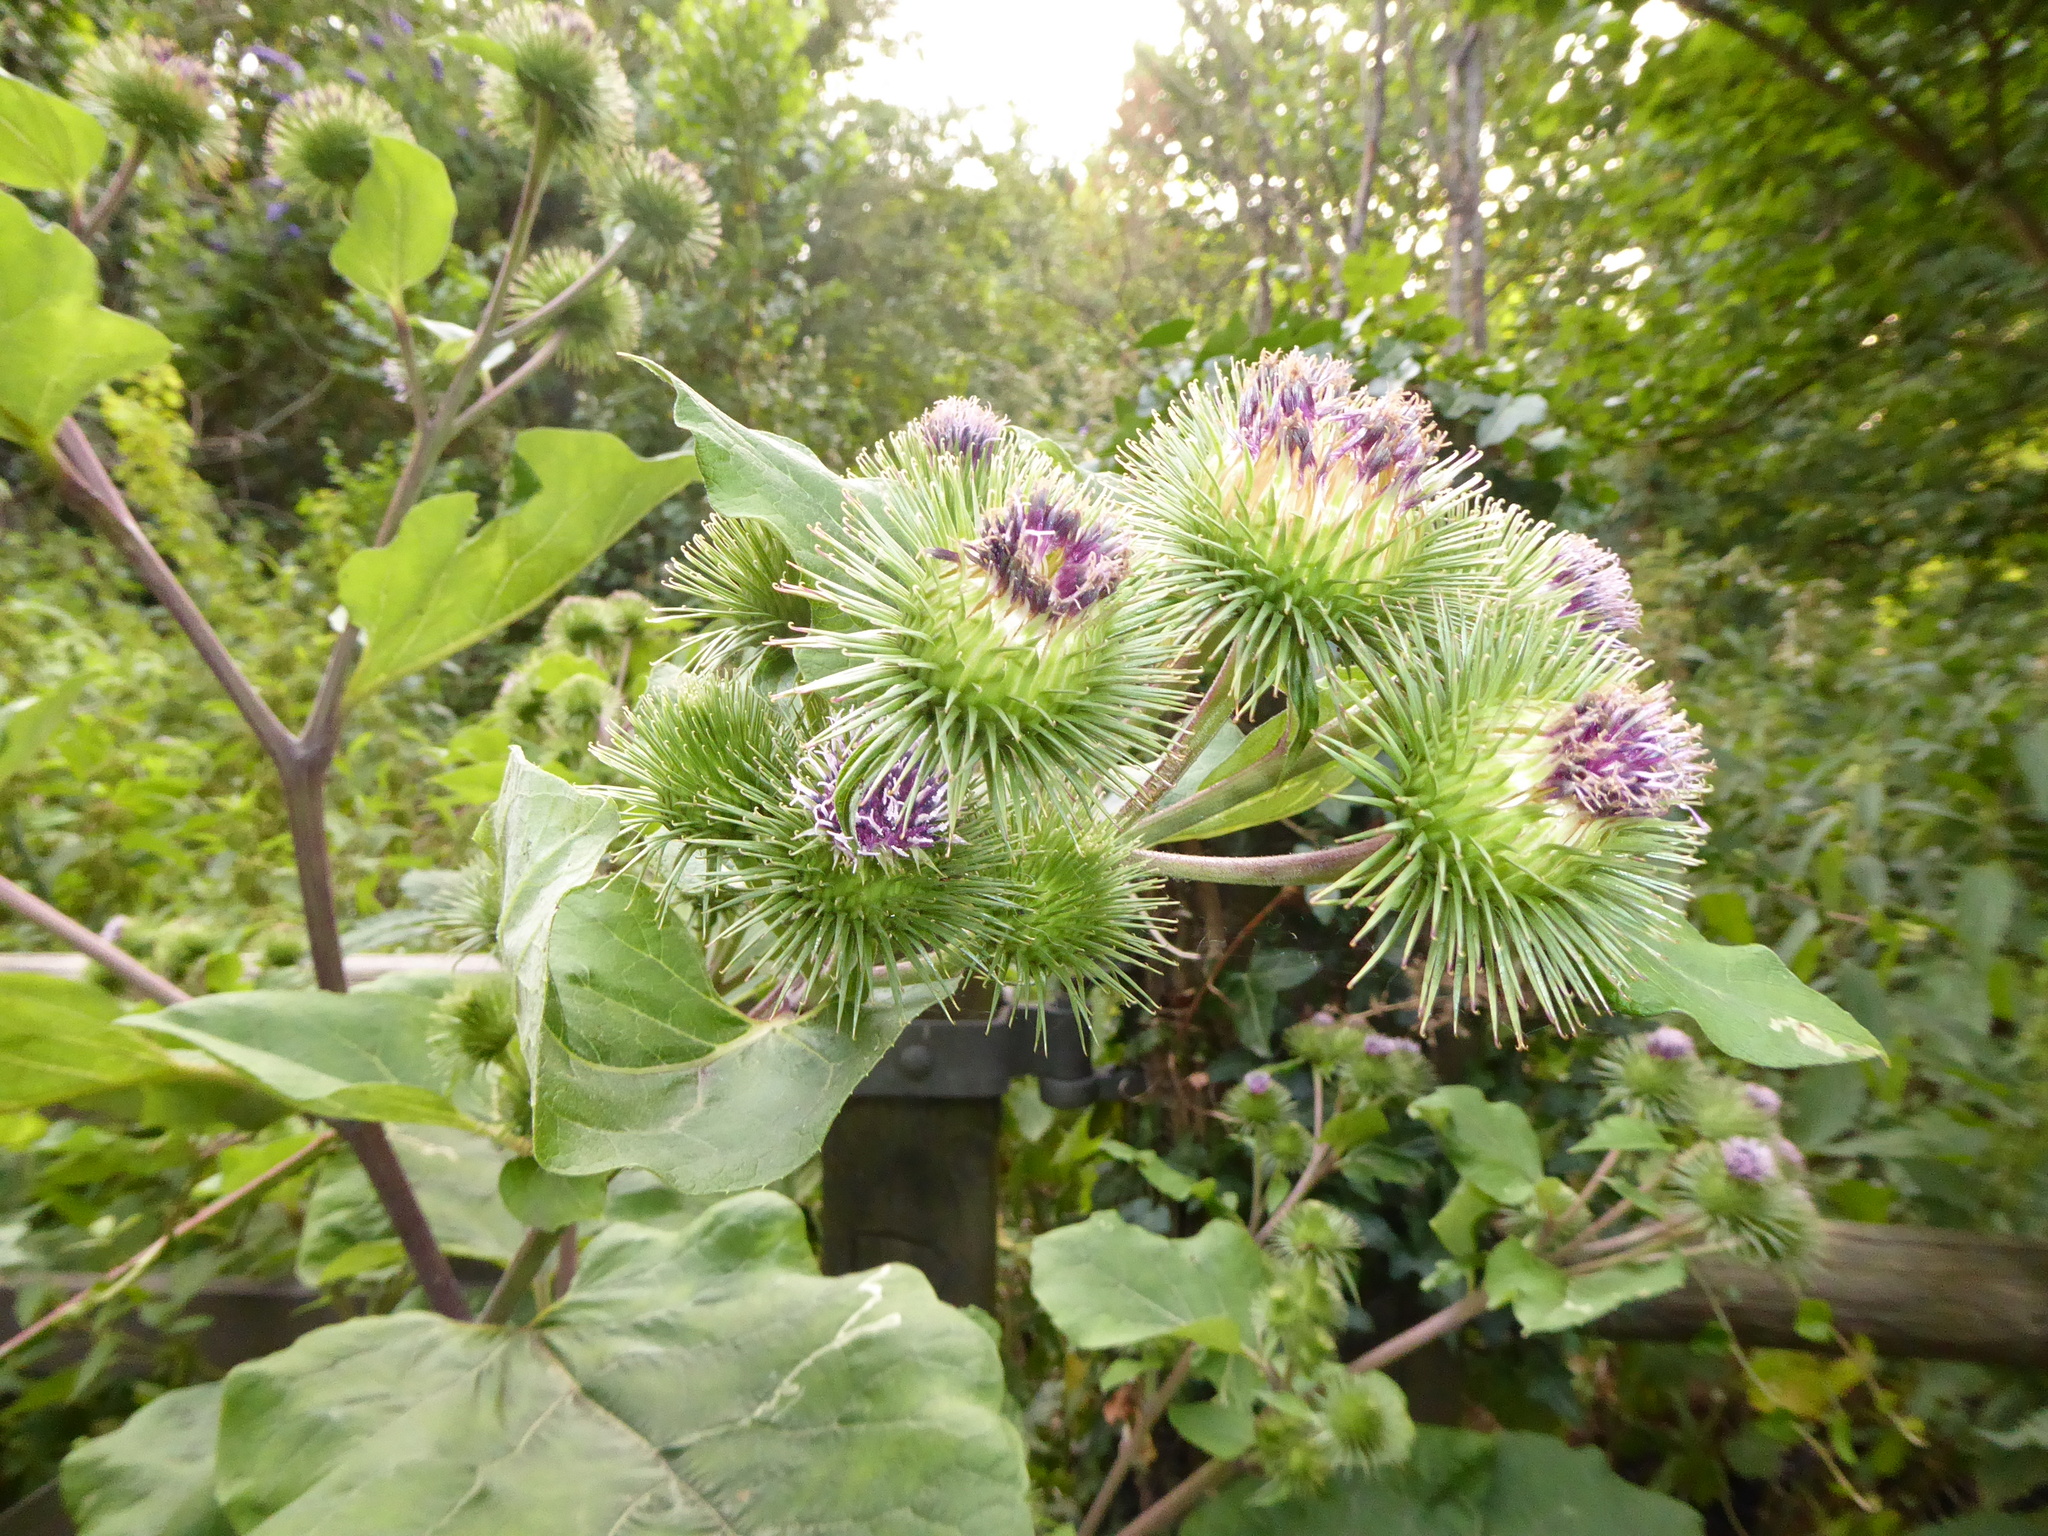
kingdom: Plantae
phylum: Tracheophyta
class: Magnoliopsida
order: Asterales
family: Asteraceae
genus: Arctium
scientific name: Arctium lappa
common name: Greater burdock
